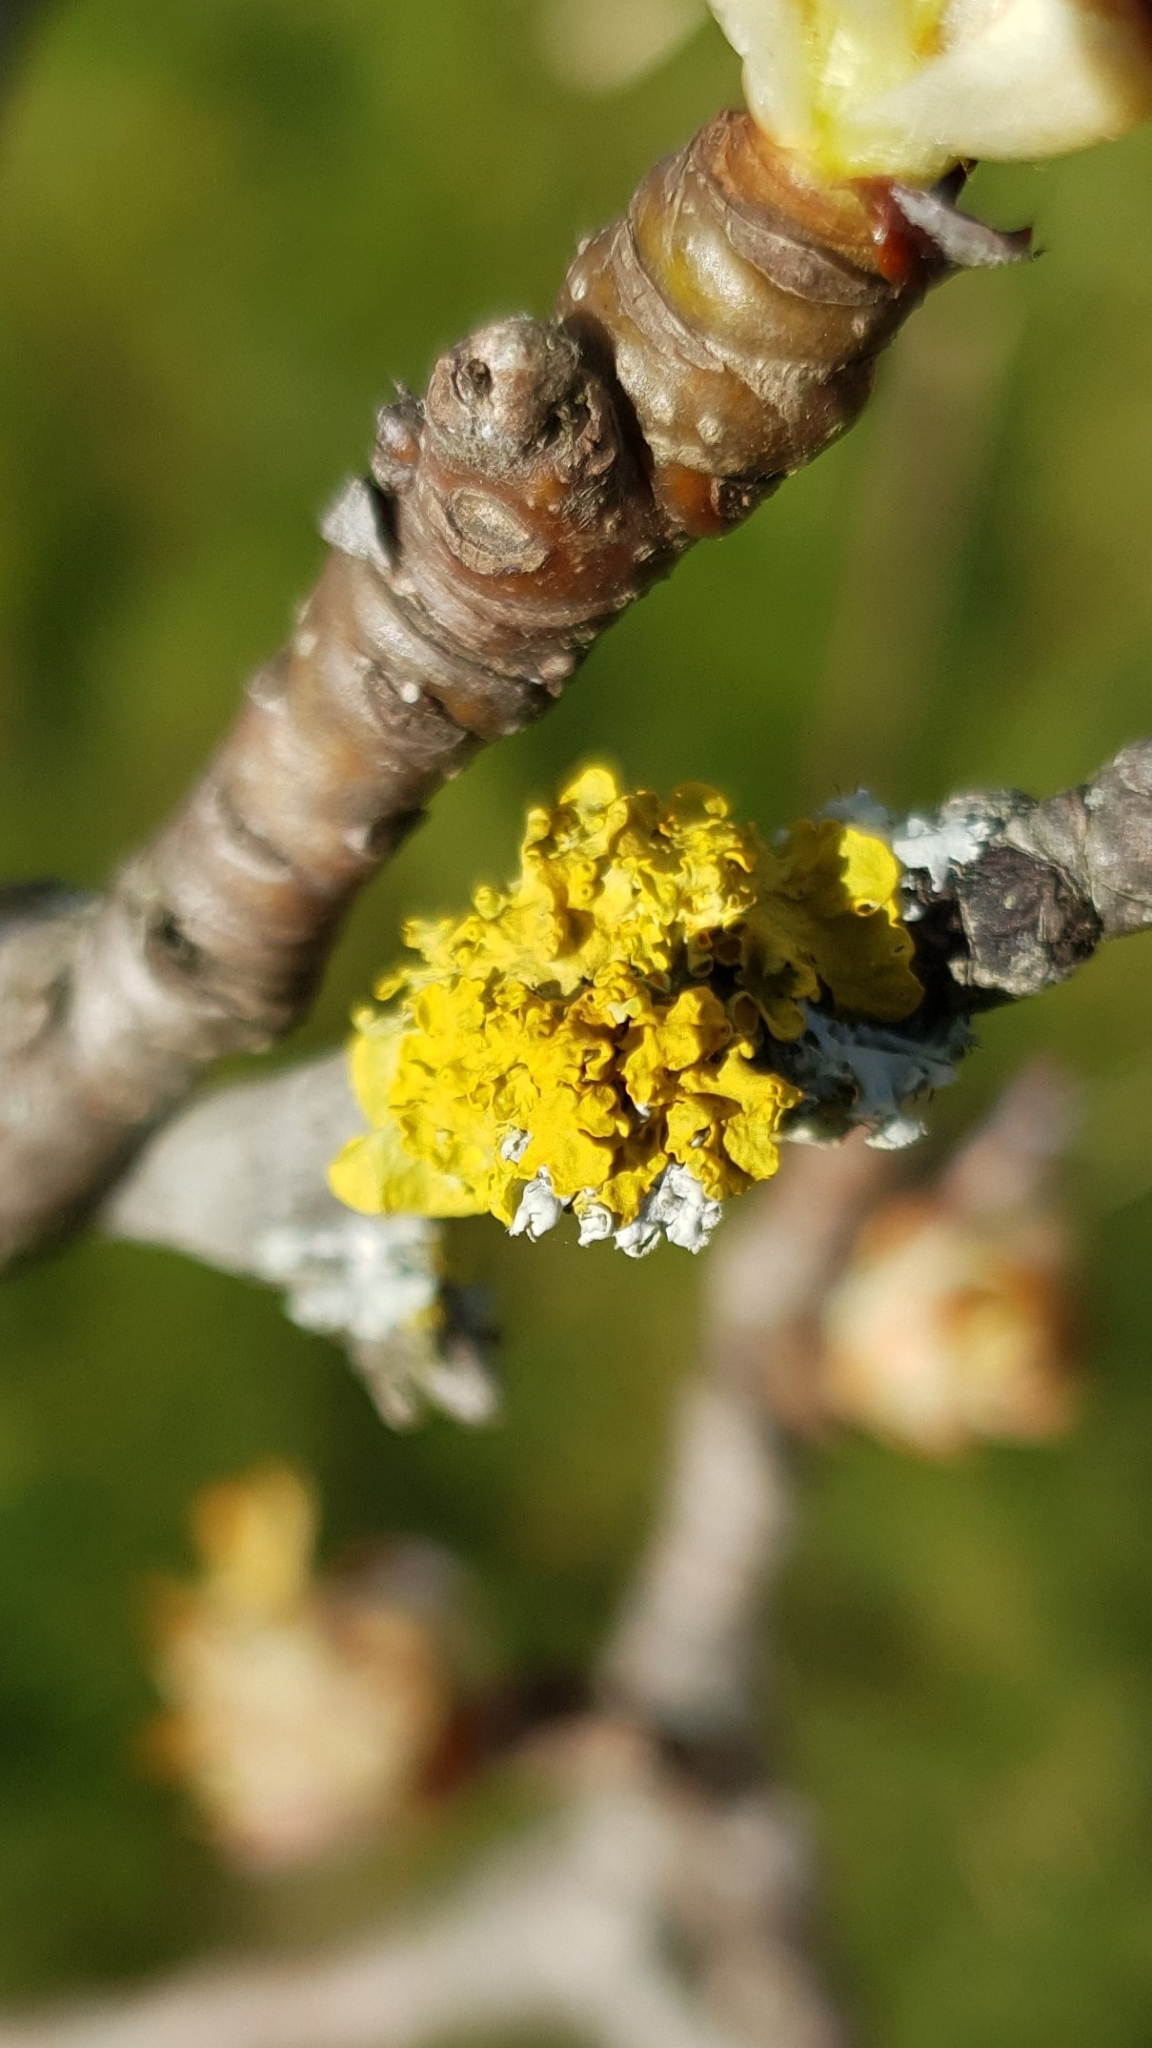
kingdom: Fungi
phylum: Ascomycota
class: Lecanoromycetes
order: Teloschistales
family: Teloschistaceae
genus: Xanthoria
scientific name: Xanthoria parietina
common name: Common orange lichen
